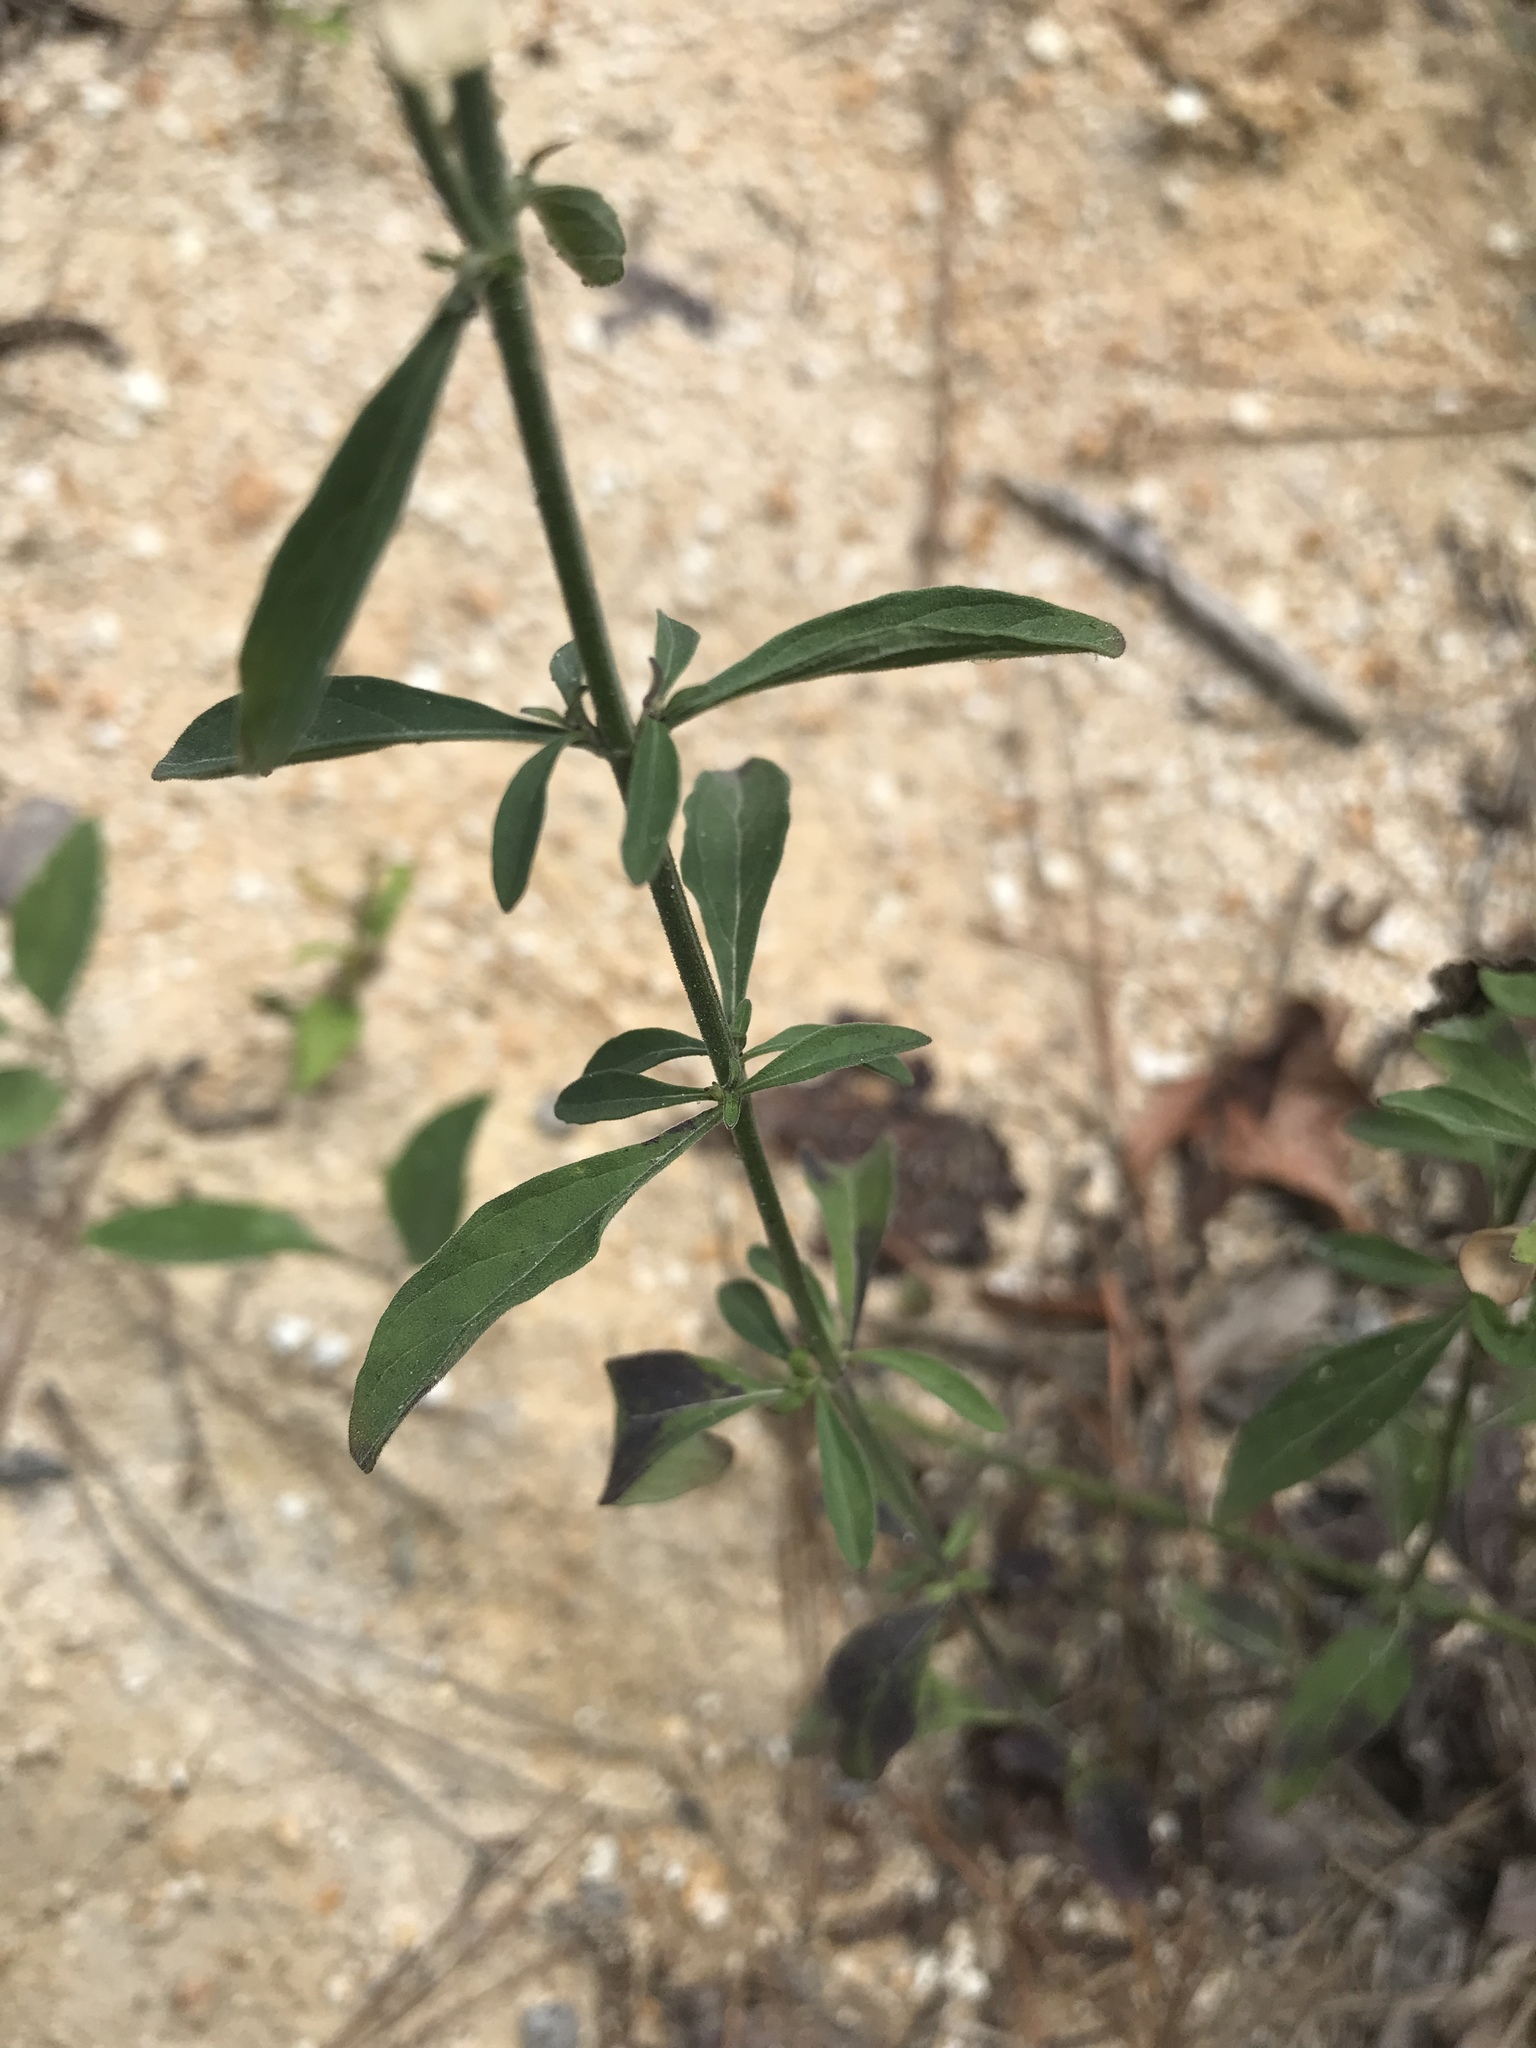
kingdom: Plantae
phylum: Tracheophyta
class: Magnoliopsida
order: Lamiales
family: Lamiaceae
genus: Scutellaria
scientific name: Scutellaria integrifolia
